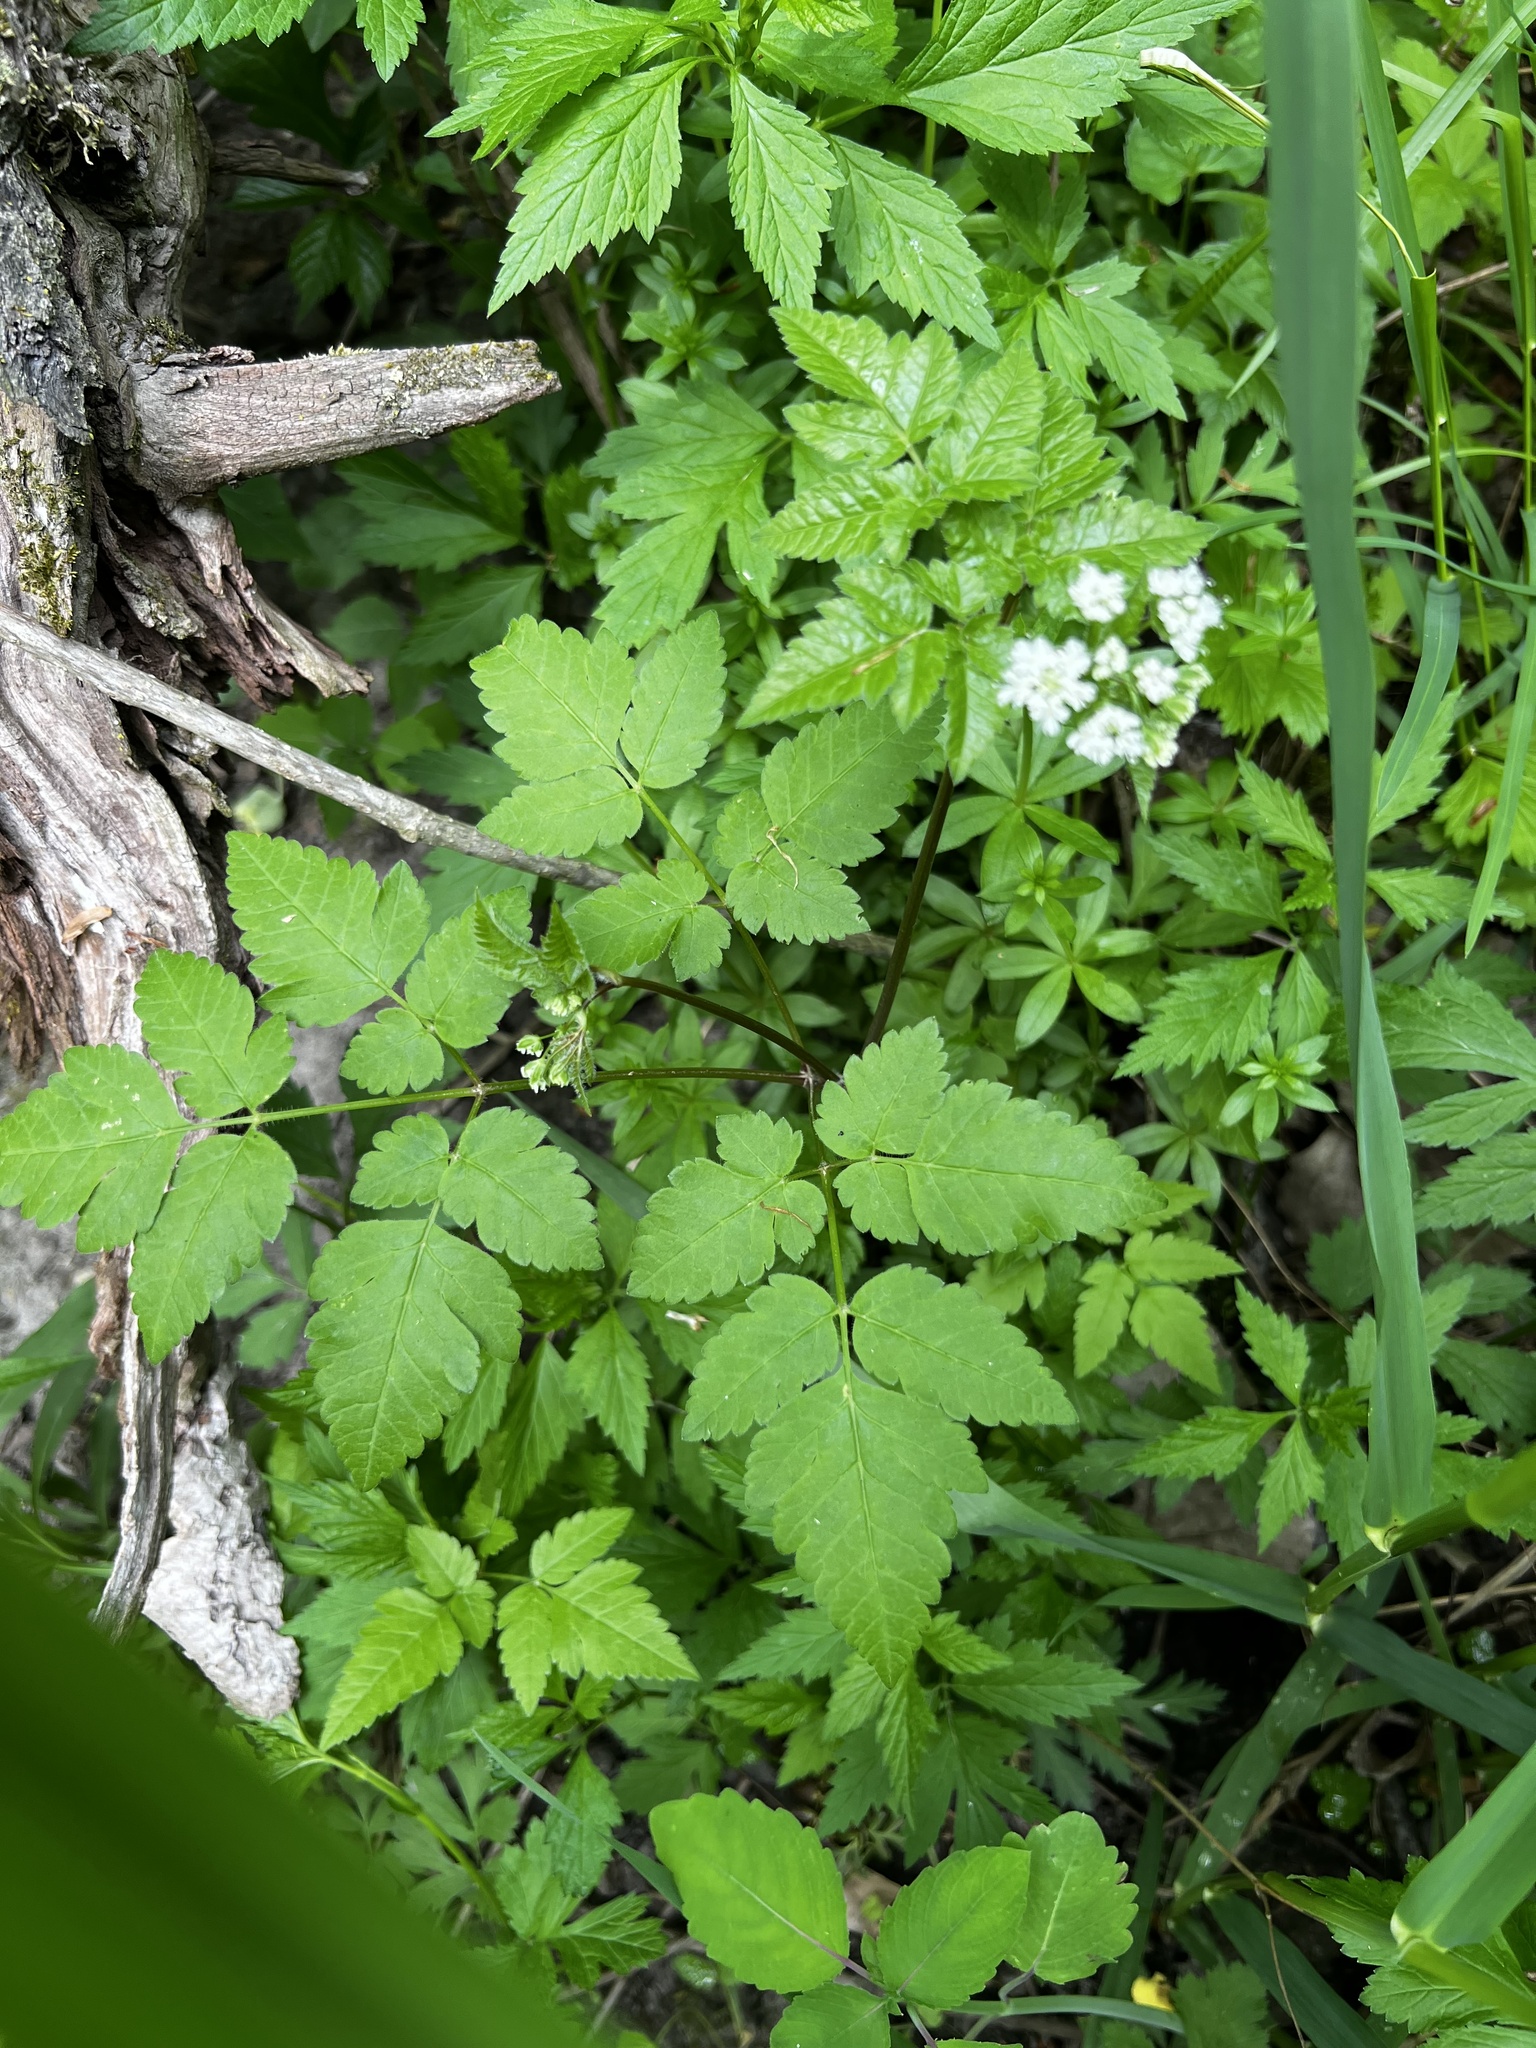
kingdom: Plantae
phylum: Tracheophyta
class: Magnoliopsida
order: Apiales
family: Apiaceae
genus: Osmorhiza
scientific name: Osmorhiza longistylis
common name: Smooth sweet cicely
